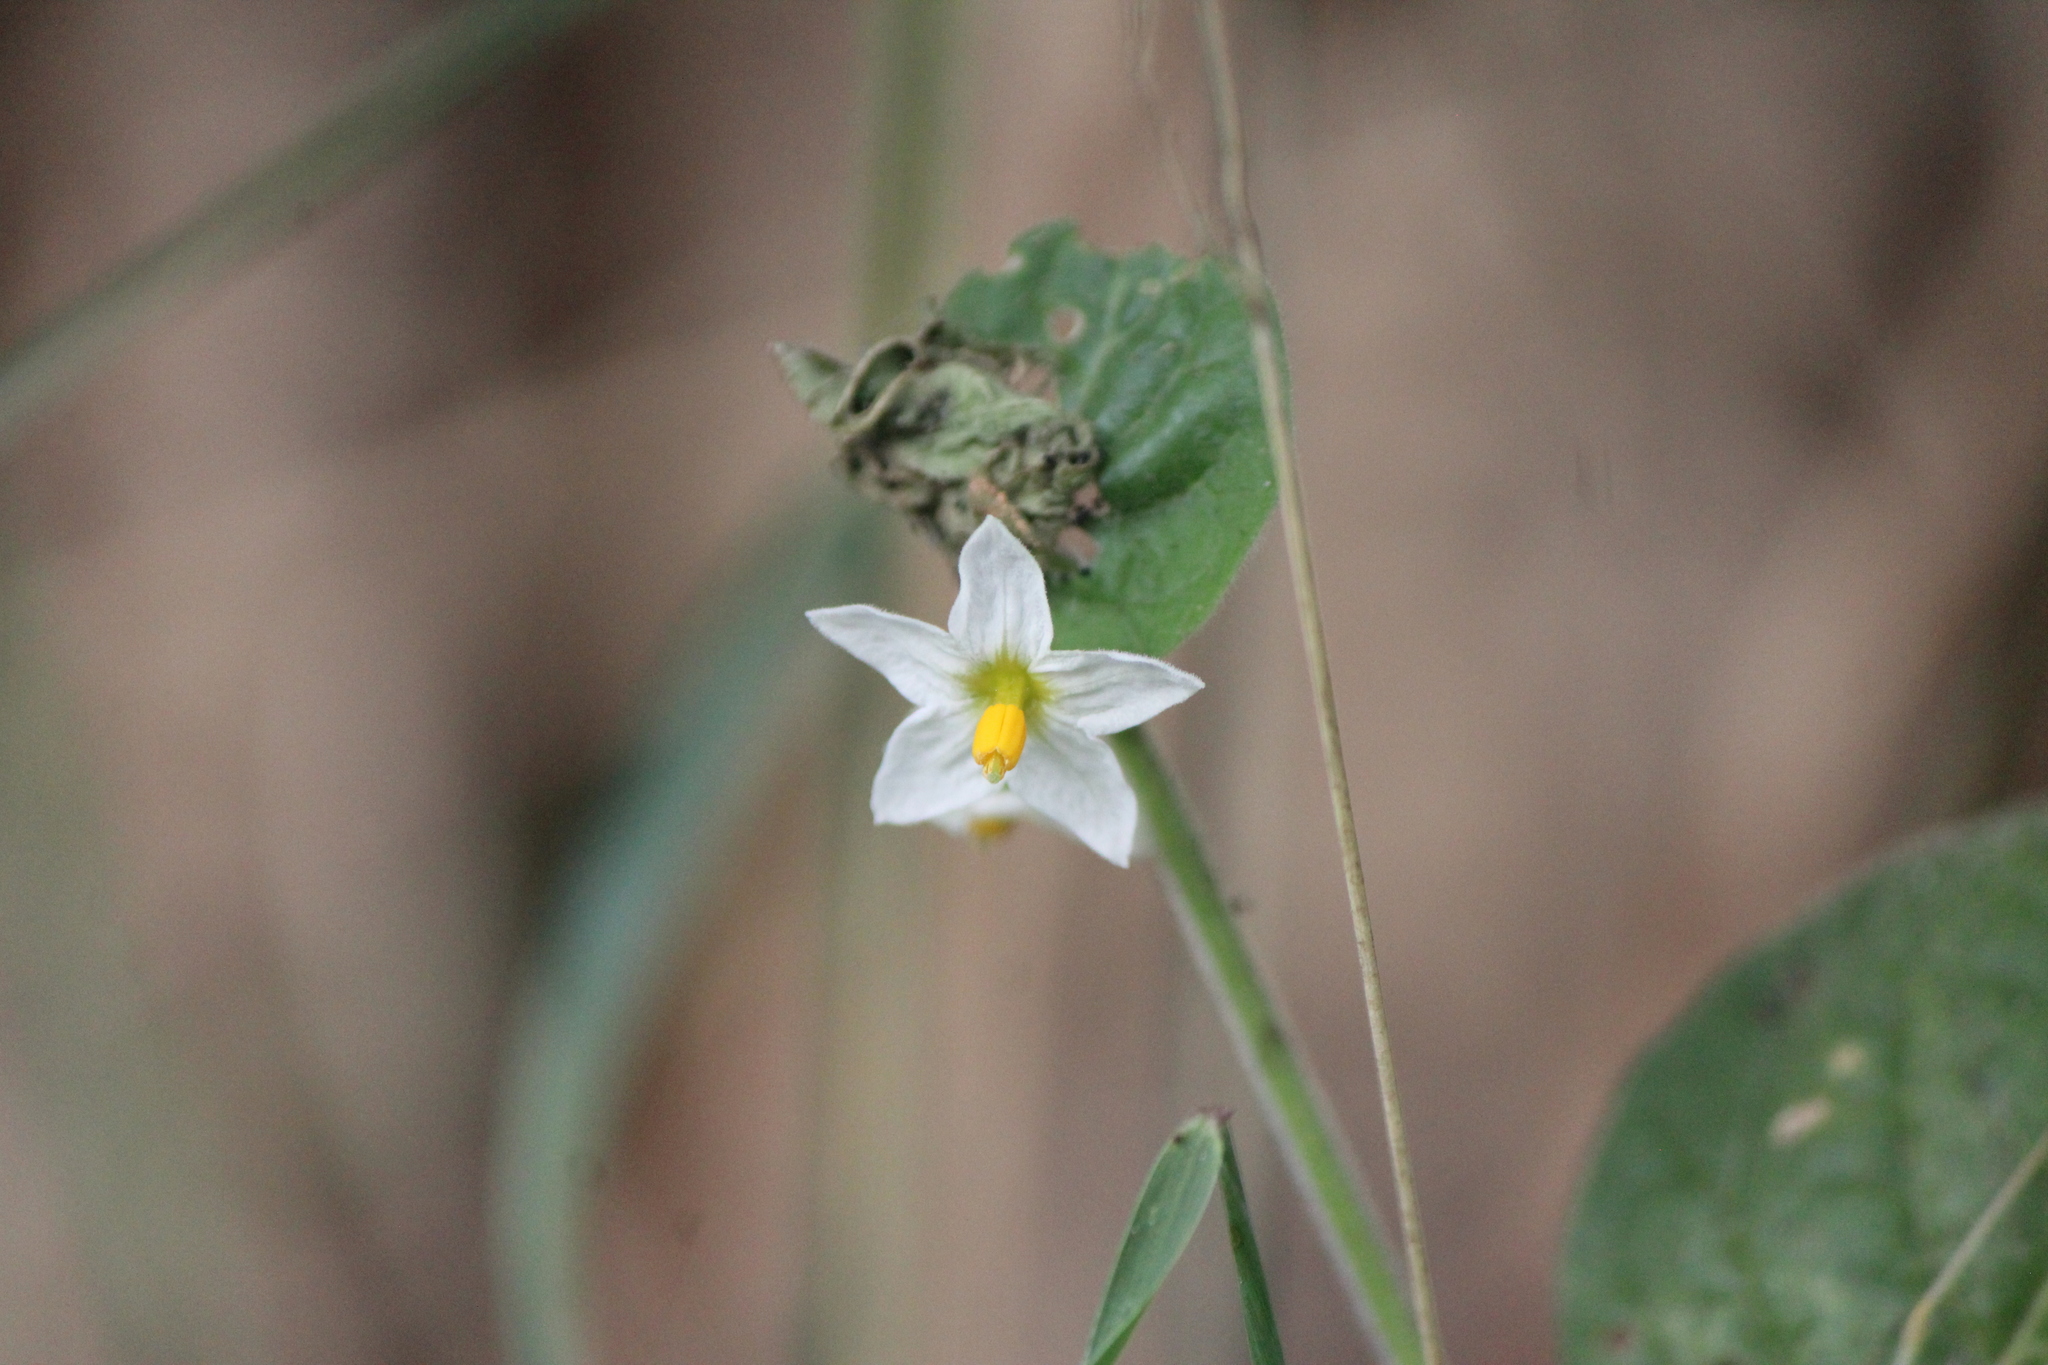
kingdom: Plantae
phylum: Tracheophyta
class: Magnoliopsida
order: Solanales
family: Solanaceae
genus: Solanum
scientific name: Solanum pruinosum
